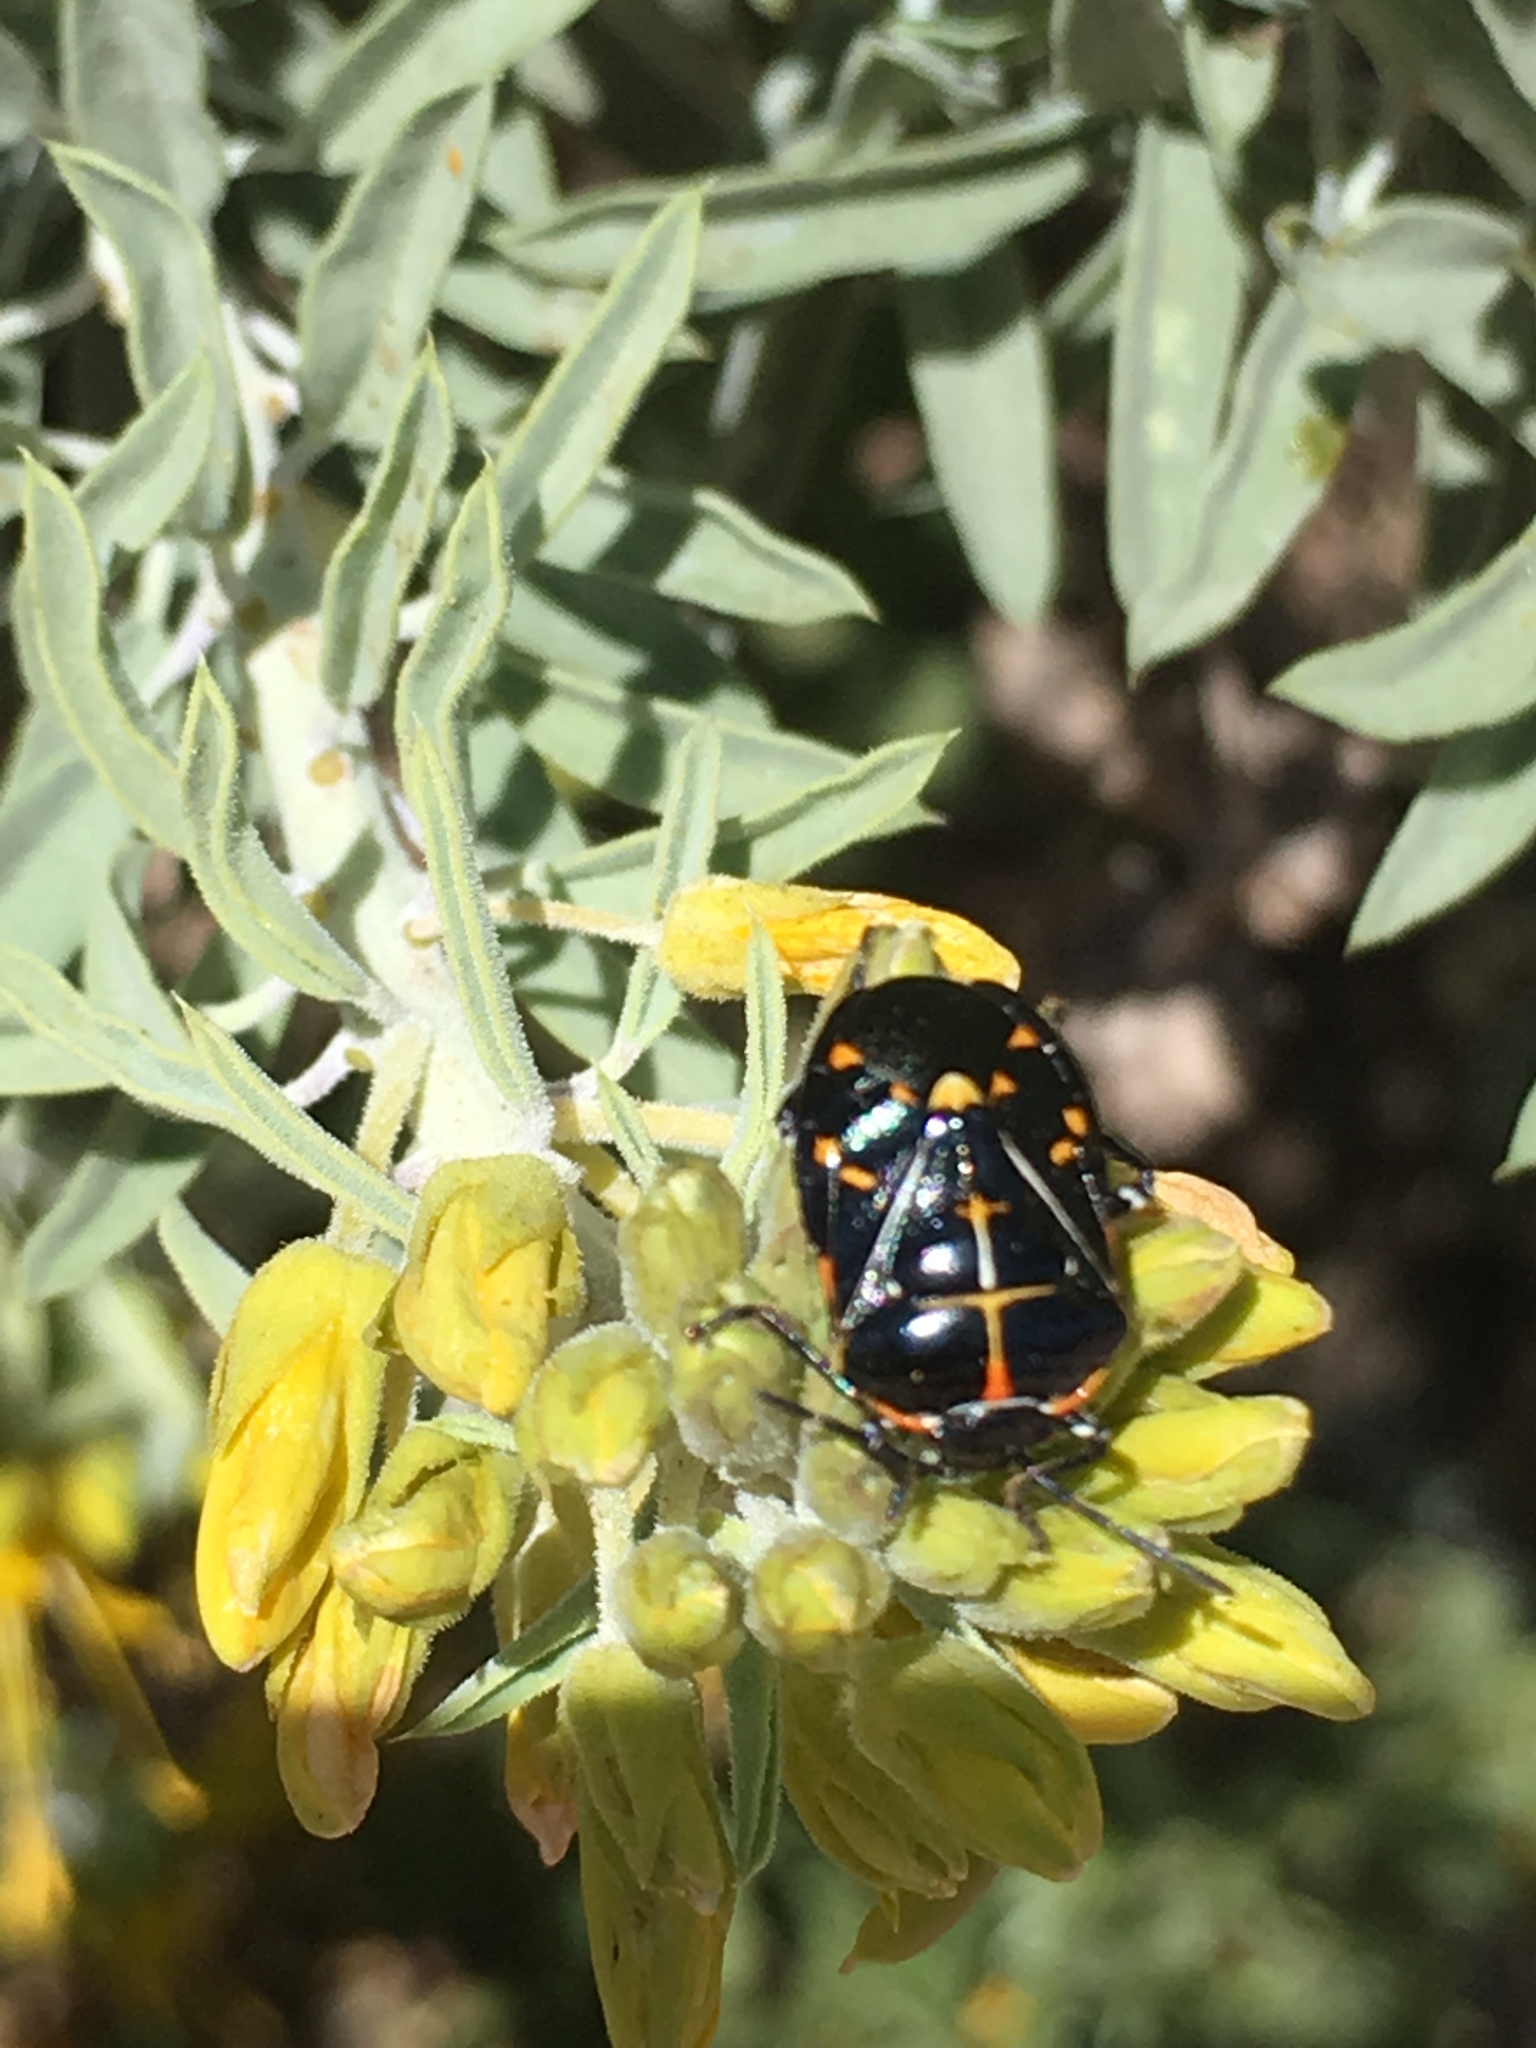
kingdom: Animalia
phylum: Arthropoda
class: Insecta
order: Hemiptera
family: Pentatomidae
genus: Murgantia
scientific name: Murgantia histrionica
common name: Harlequin bug
